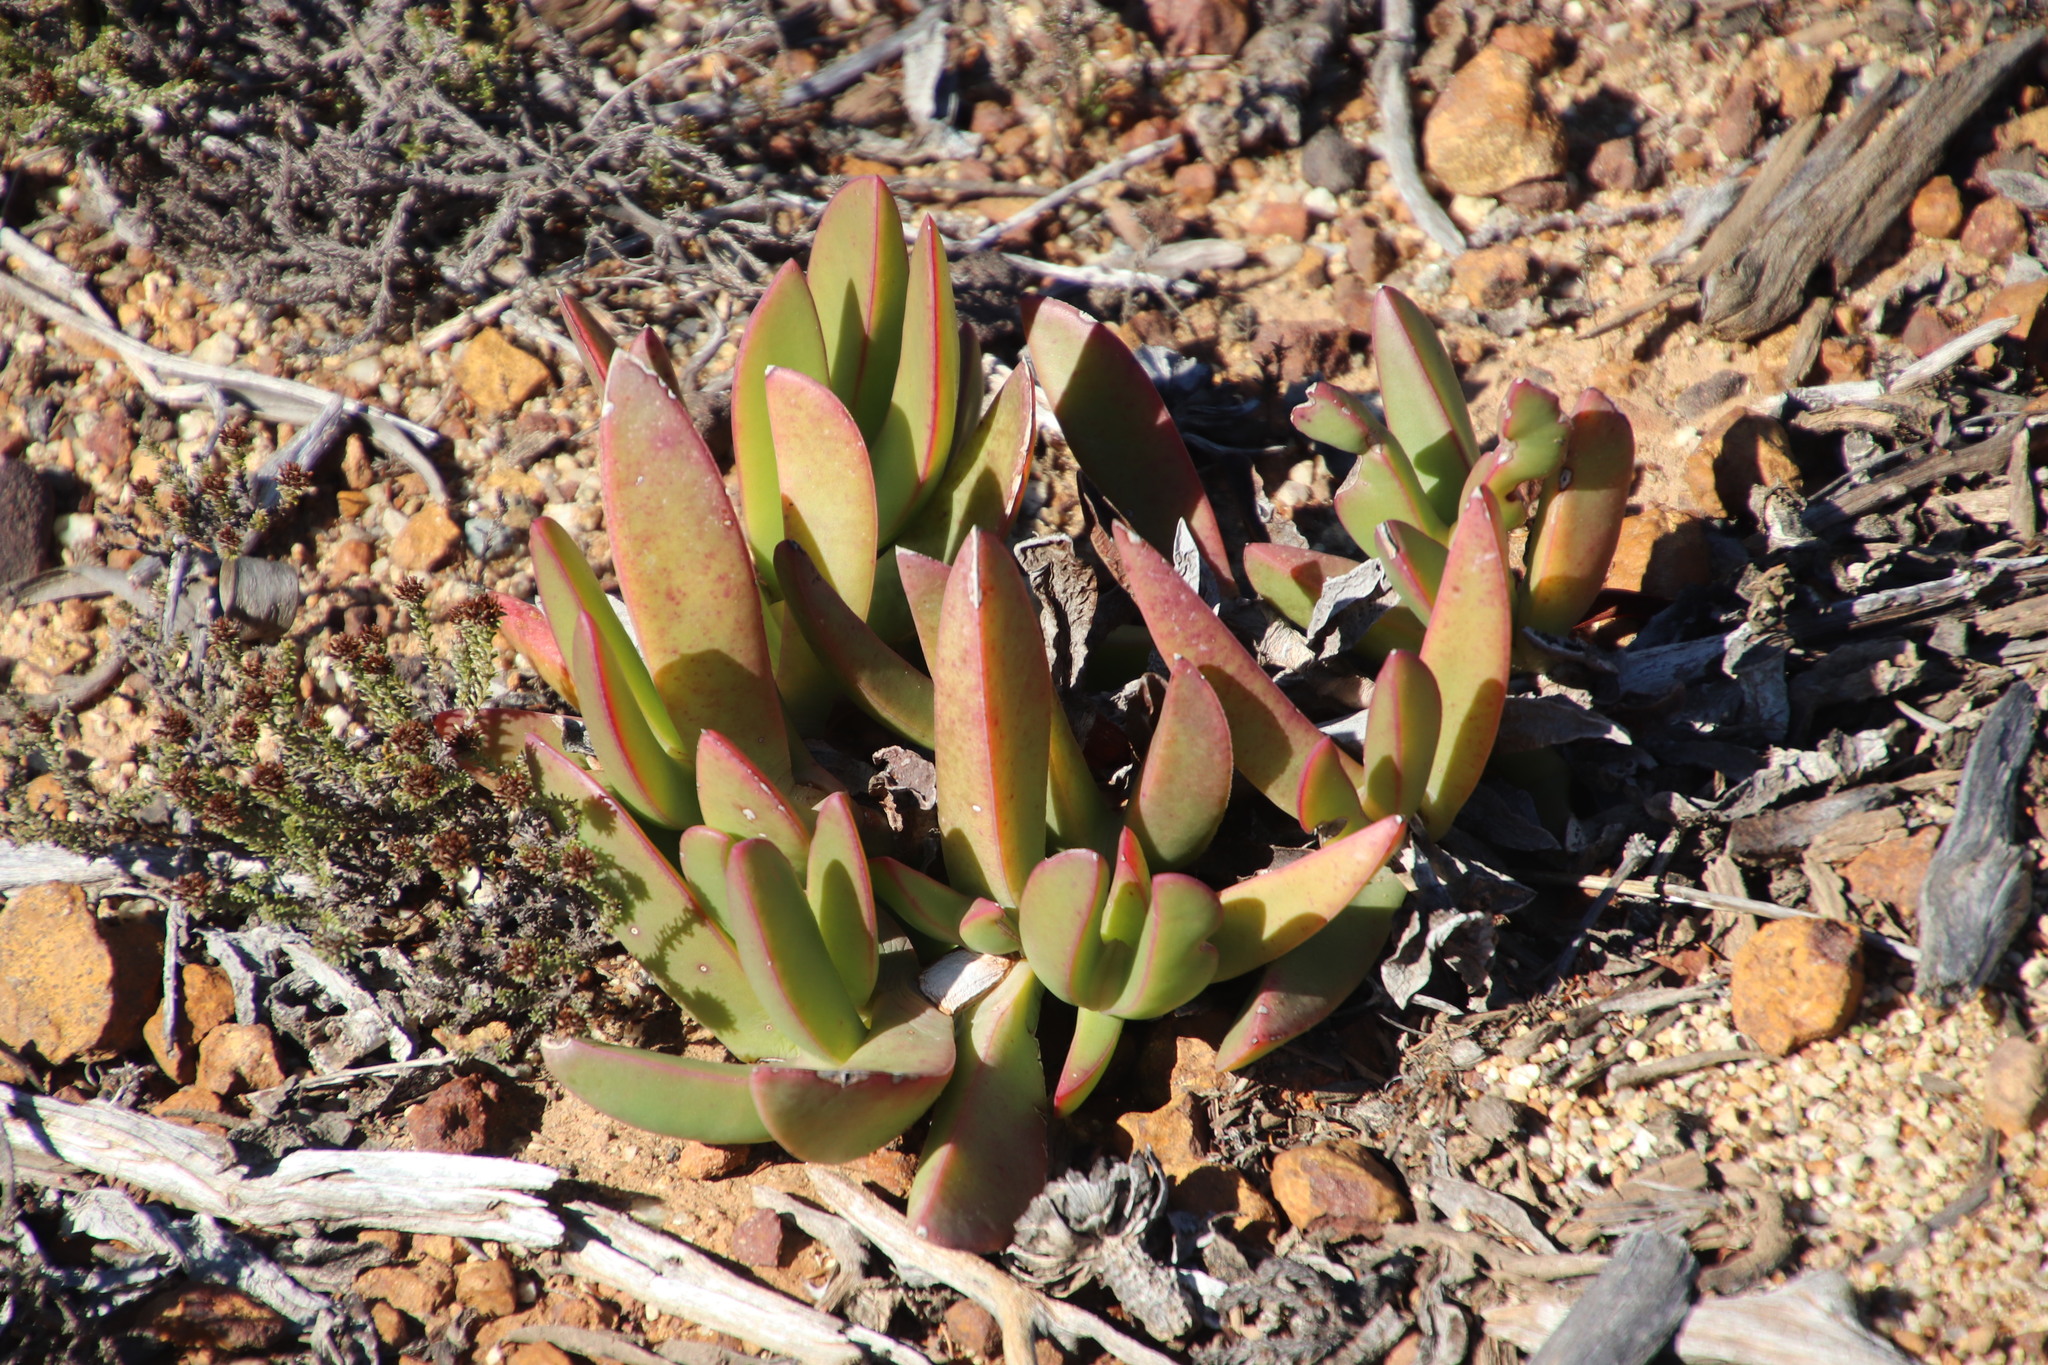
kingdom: Plantae
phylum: Tracheophyta
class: Magnoliopsida
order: Caryophyllales
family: Aizoaceae
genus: Carpobrotus
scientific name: Carpobrotus acinaciformis
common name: Sally-my-handsome
